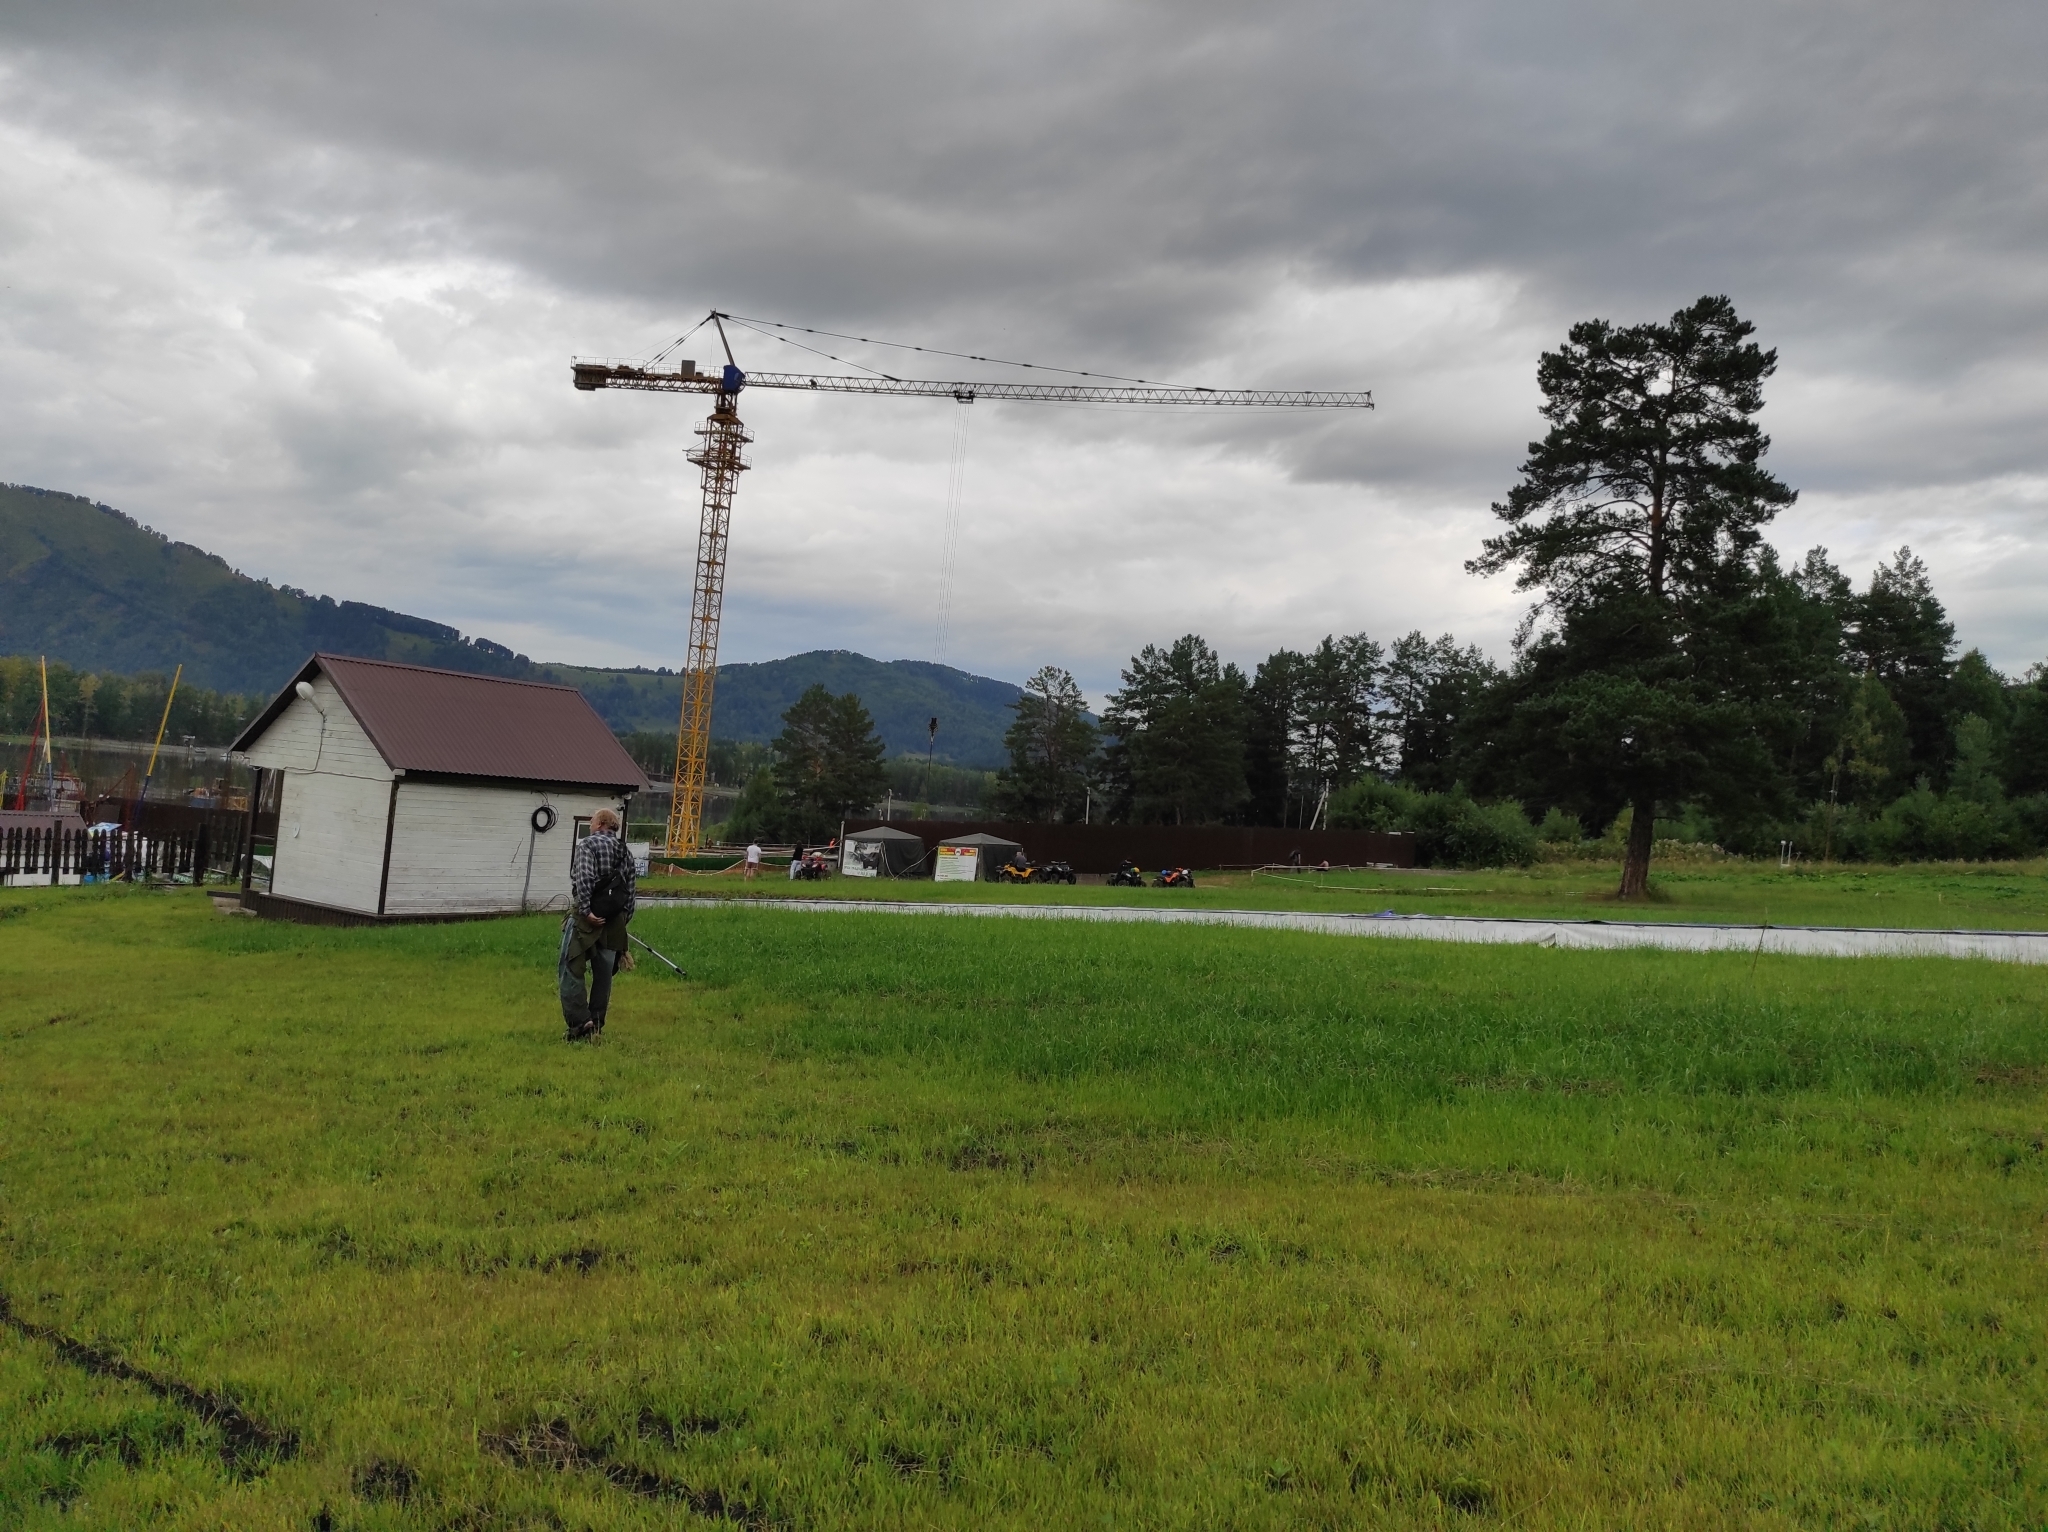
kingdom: Plantae
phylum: Tracheophyta
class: Pinopsida
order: Pinales
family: Pinaceae
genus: Pinus
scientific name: Pinus sylvestris
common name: Scots pine
